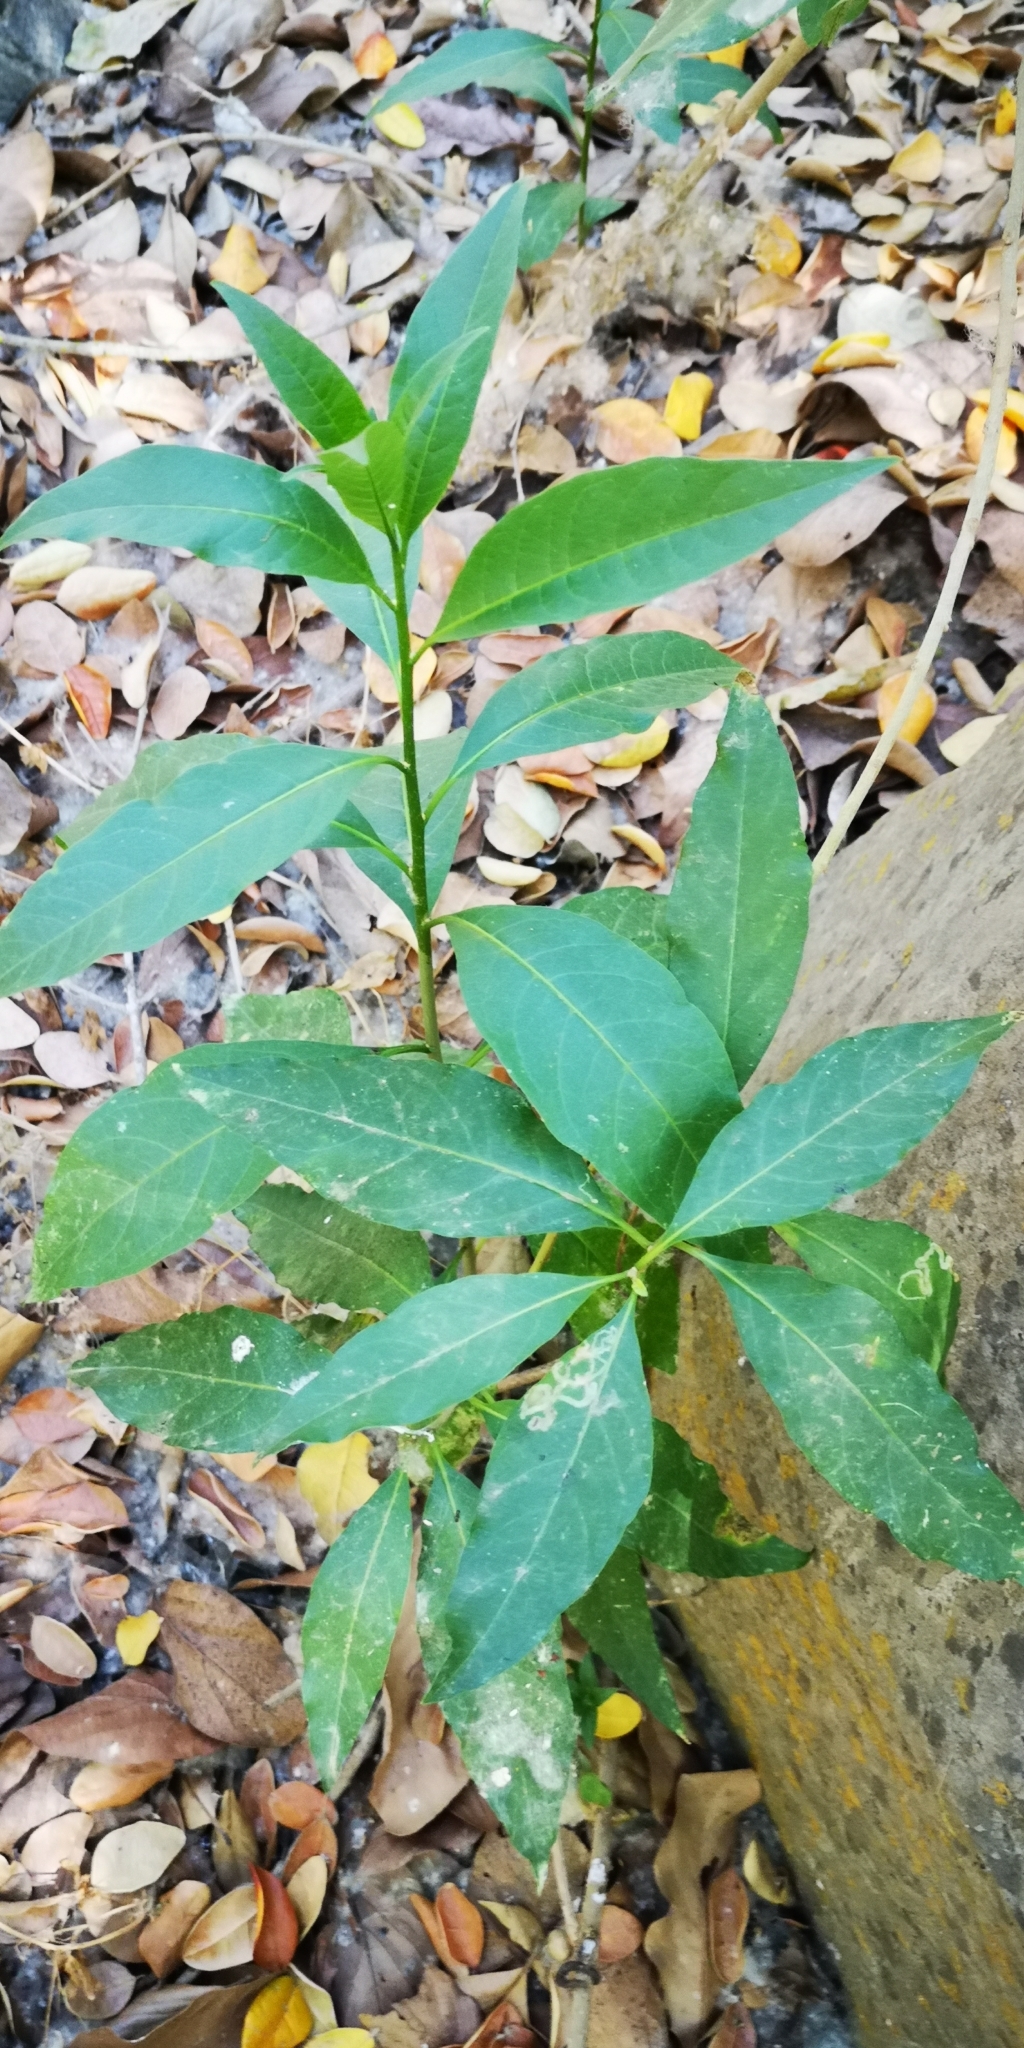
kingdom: Plantae
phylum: Tracheophyta
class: Magnoliopsida
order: Solanales
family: Solanaceae
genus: Cestrum
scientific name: Cestrum parqui
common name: Chilean cestrum
